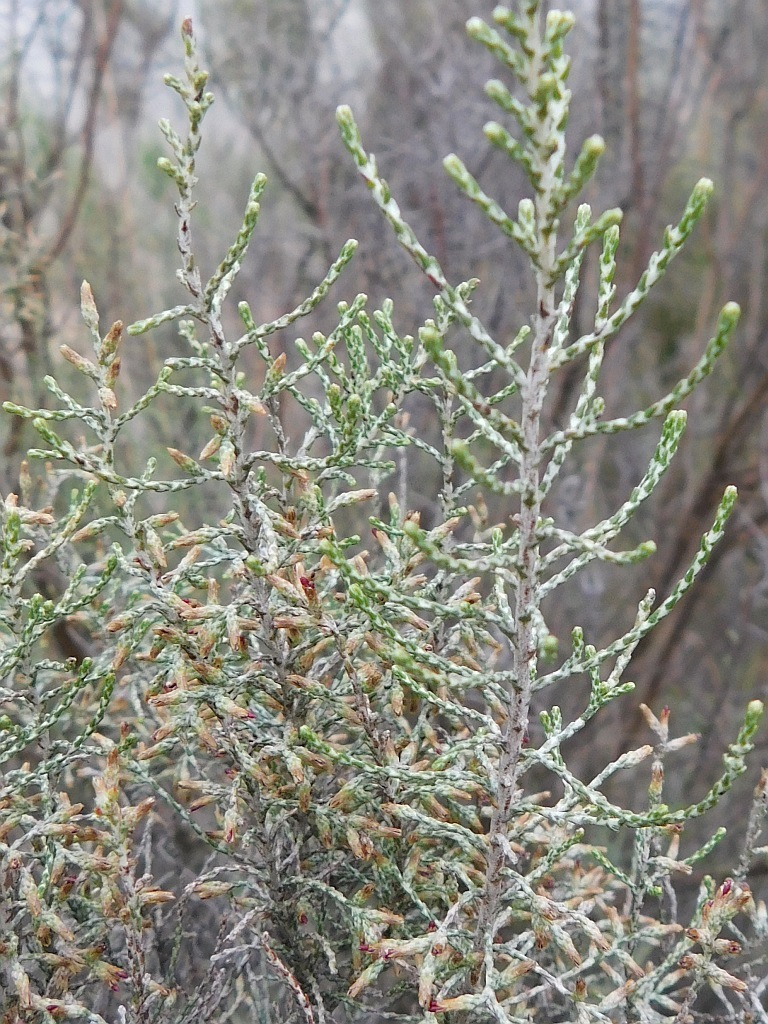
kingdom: Plantae
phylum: Tracheophyta
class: Magnoliopsida
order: Asterales
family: Asteraceae
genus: Dicerothamnus
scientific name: Dicerothamnus rhinocerotis
